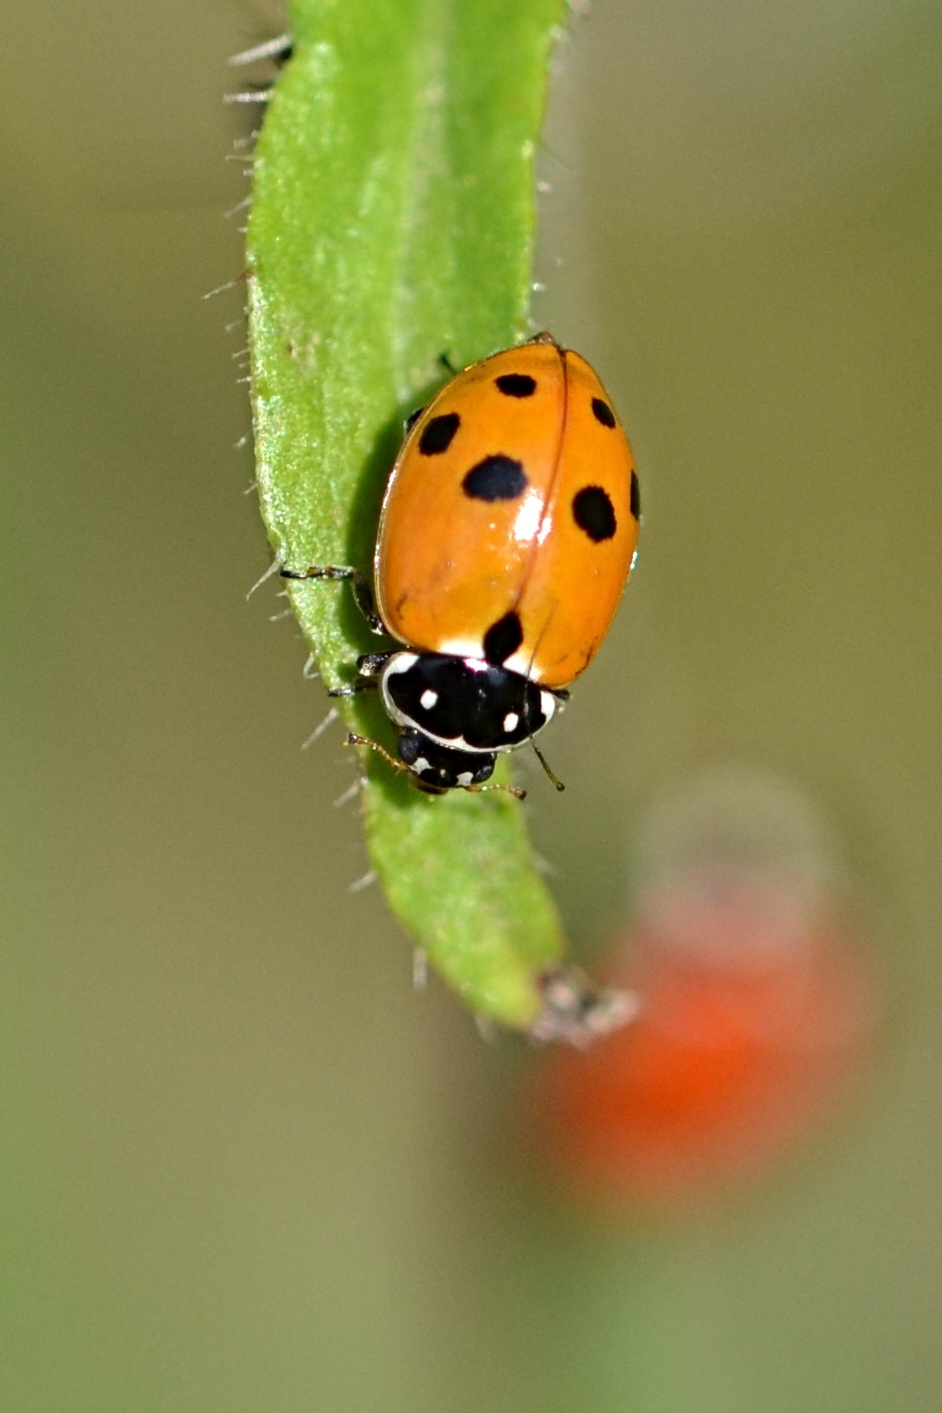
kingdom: Animalia
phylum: Arthropoda
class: Insecta
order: Coleoptera
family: Coccinellidae
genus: Hippodamia
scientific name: Hippodamia variegata
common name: Ladybird beetle
